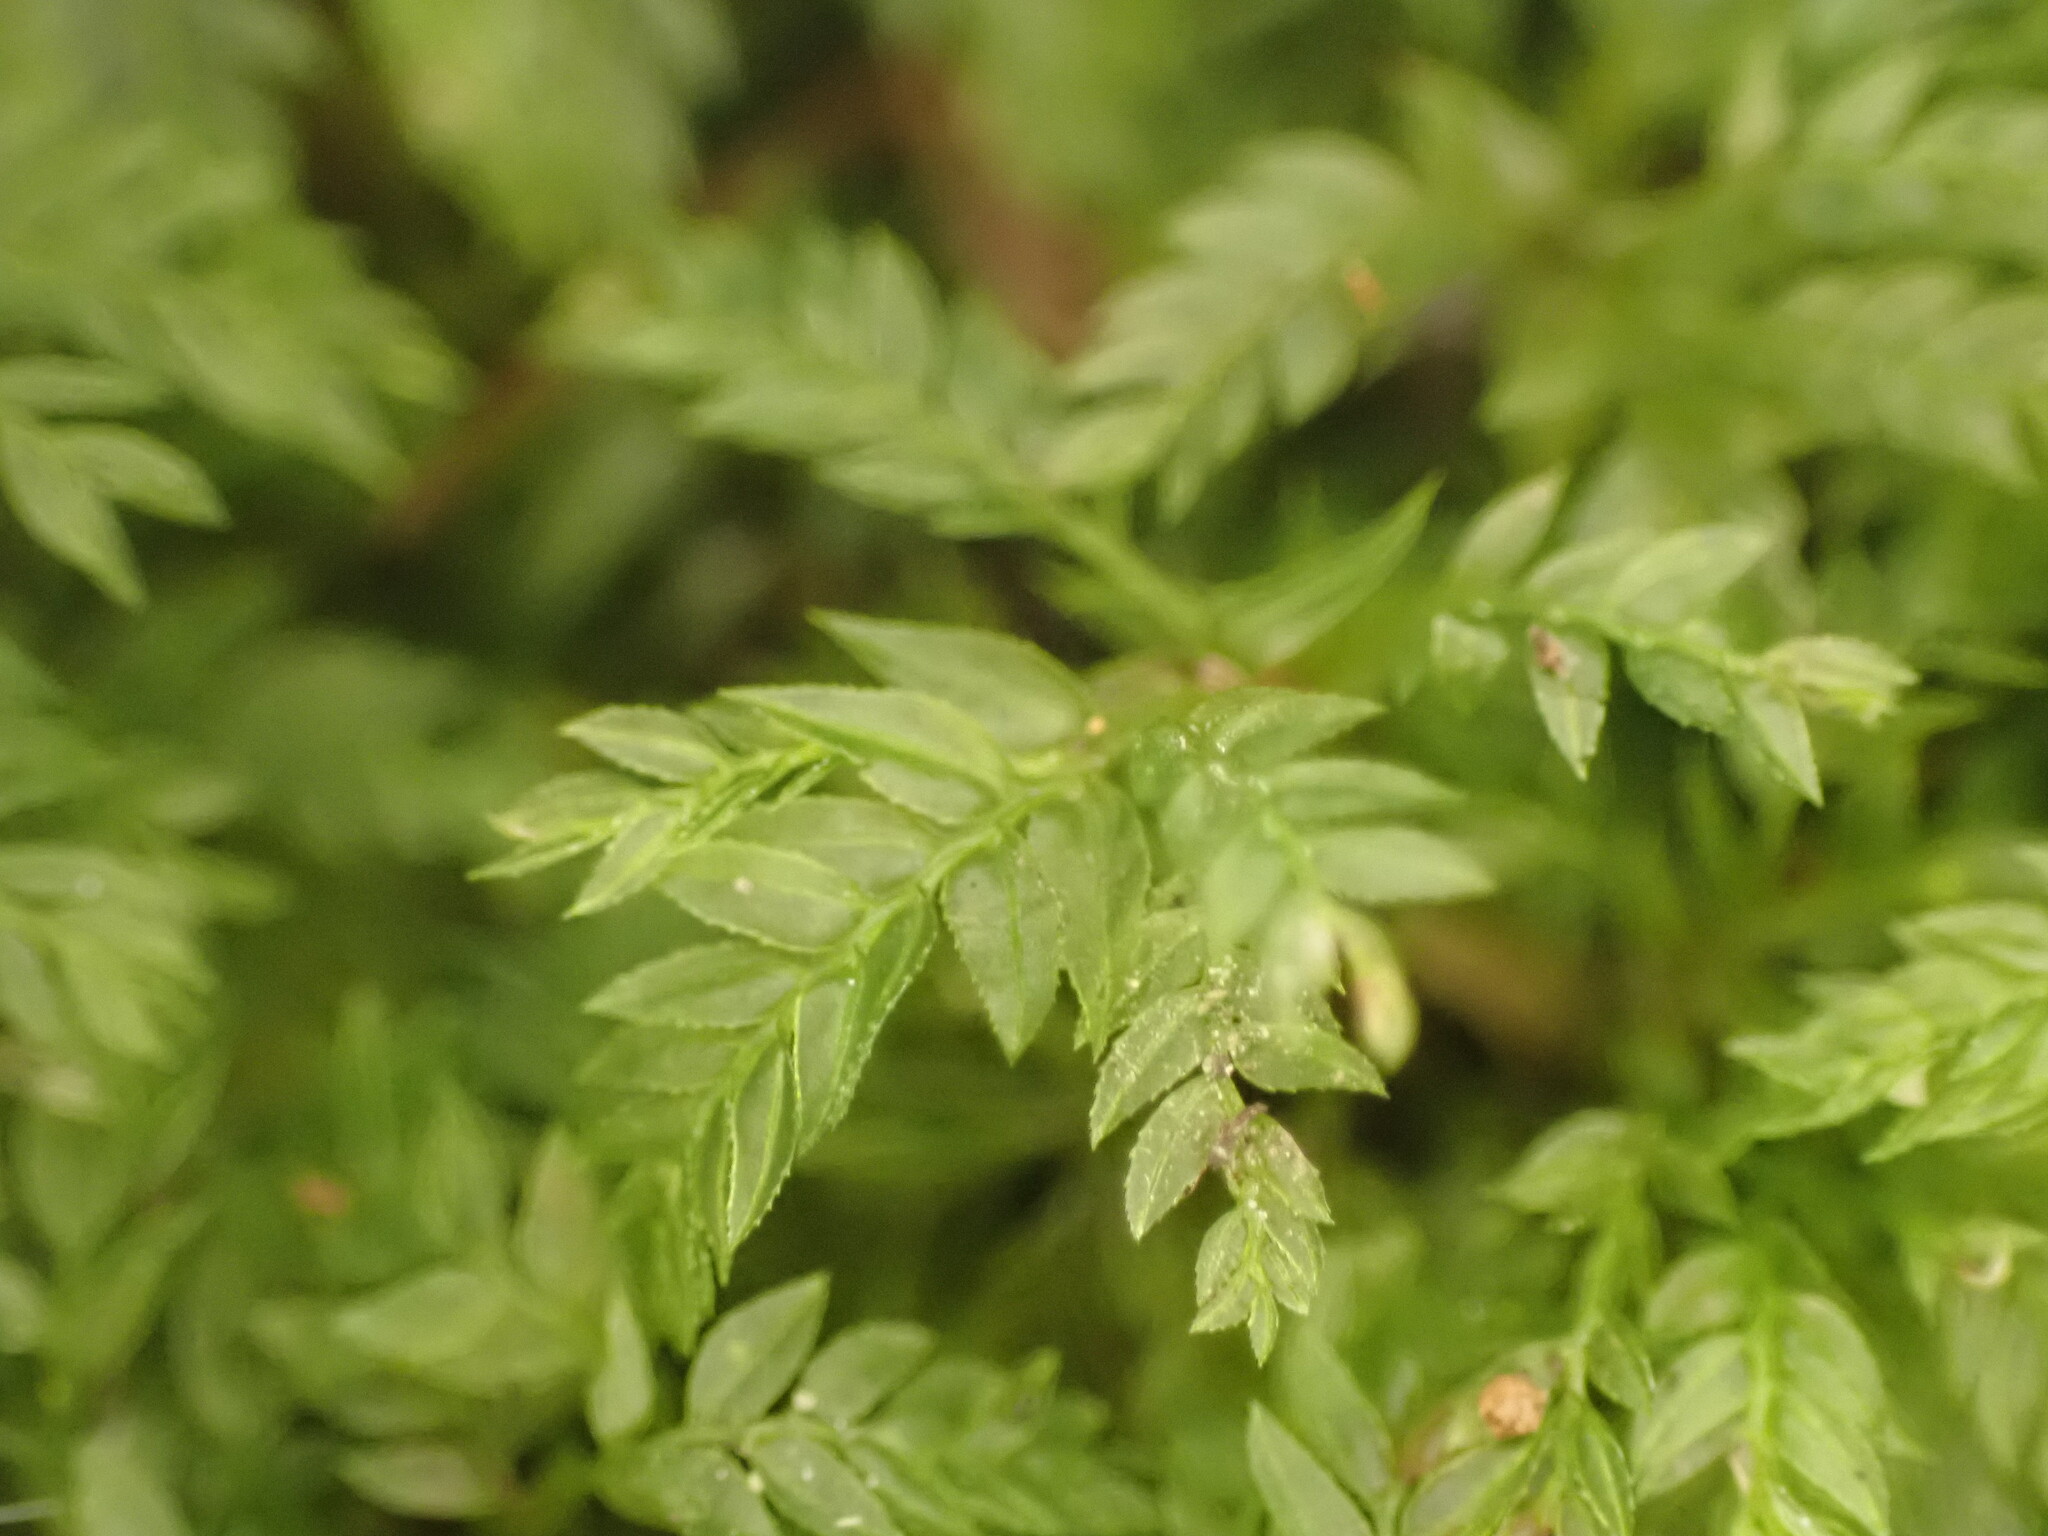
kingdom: Plantae
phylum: Bryophyta
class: Bryopsida
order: Aulacomniales
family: Aulacomniaceae
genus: Hymenodontopsis
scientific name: Hymenodontopsis bifaria
